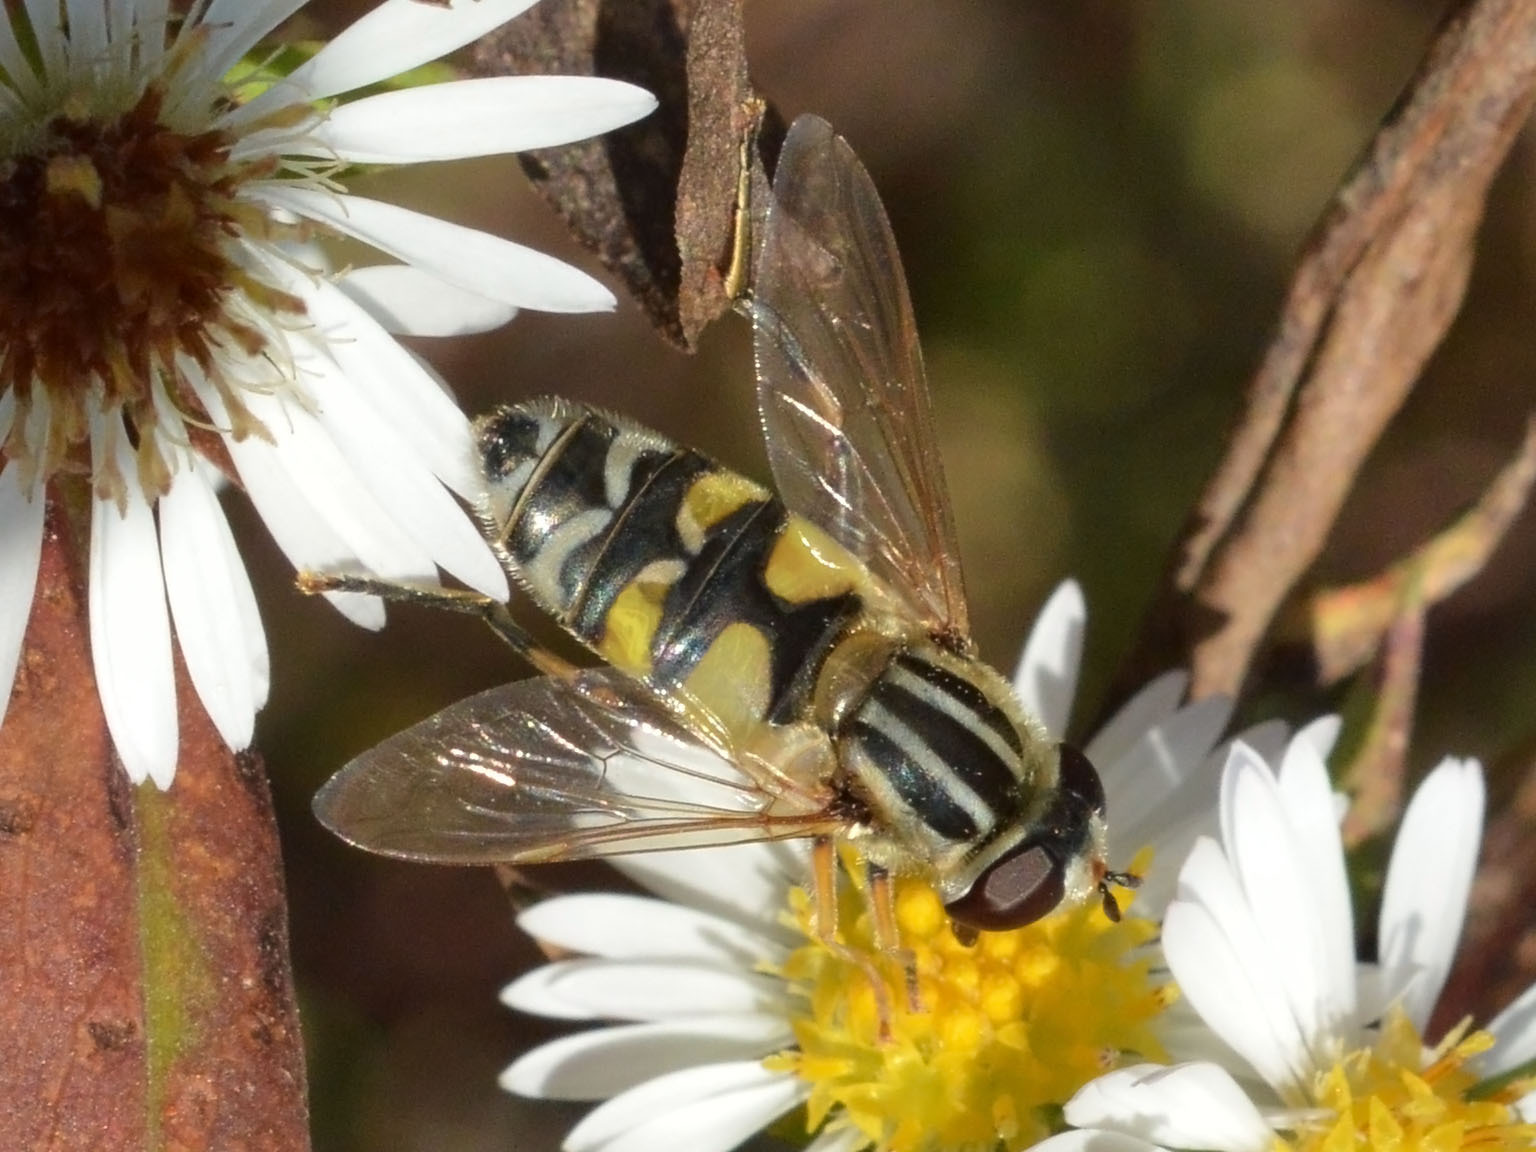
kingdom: Animalia
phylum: Arthropoda
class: Insecta
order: Diptera
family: Syrphidae
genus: Helophilus
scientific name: Helophilus trivittatus
